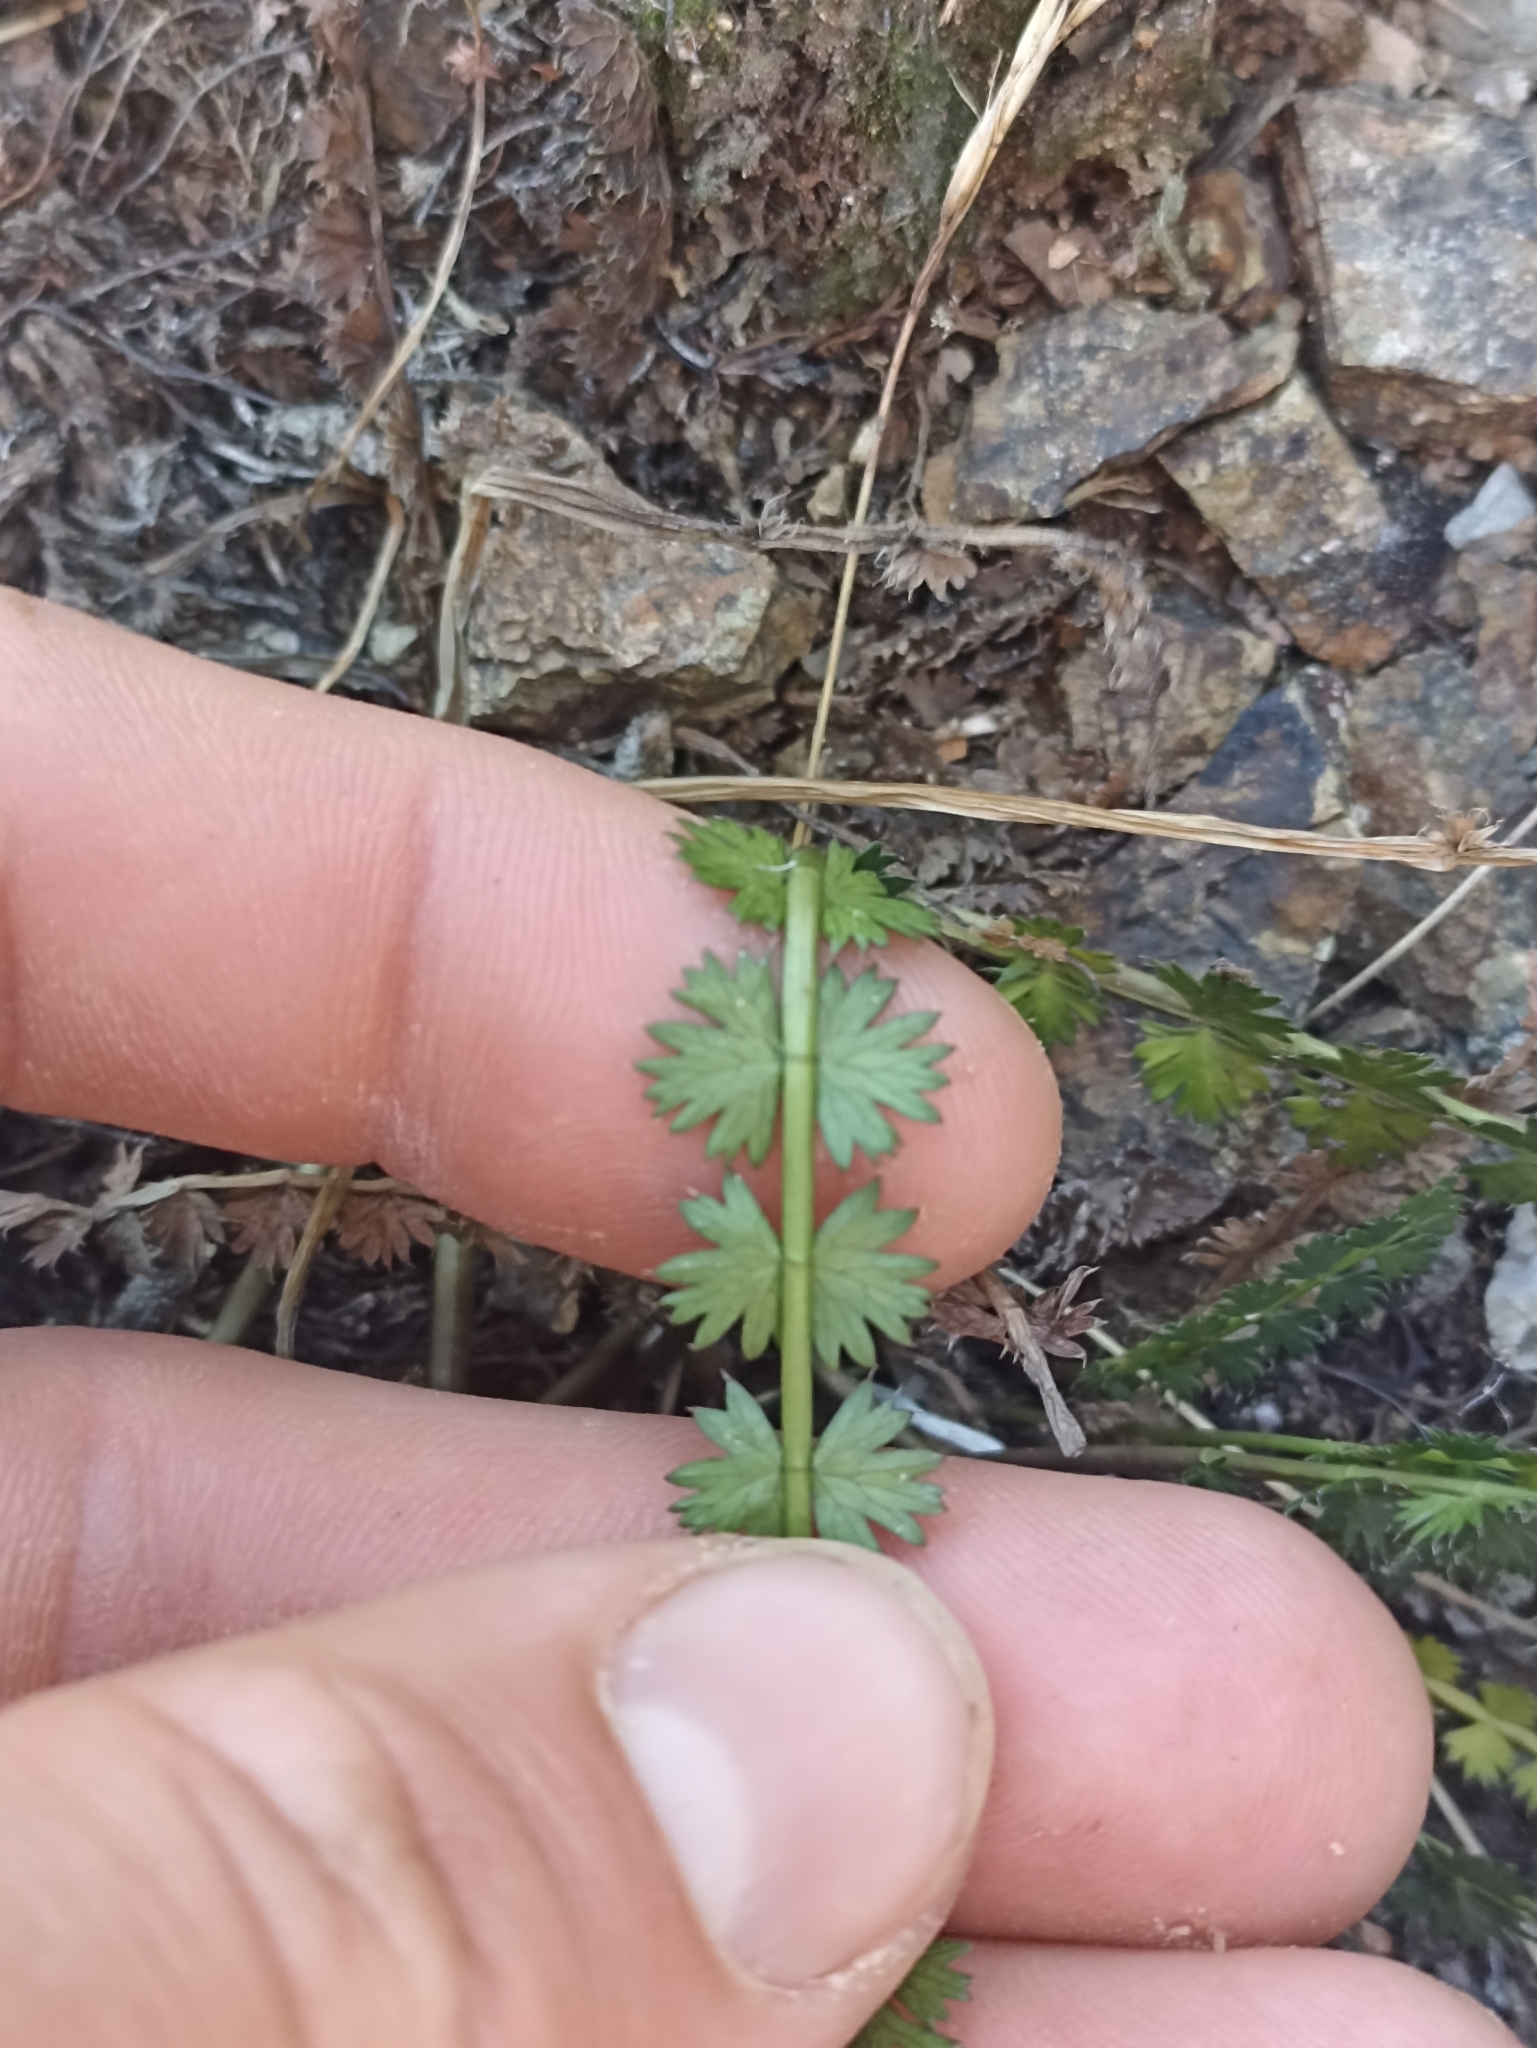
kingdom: Plantae
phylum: Tracheophyta
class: Magnoliopsida
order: Apiales
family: Apiaceae
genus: Anisotome
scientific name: Anisotome aromatica
